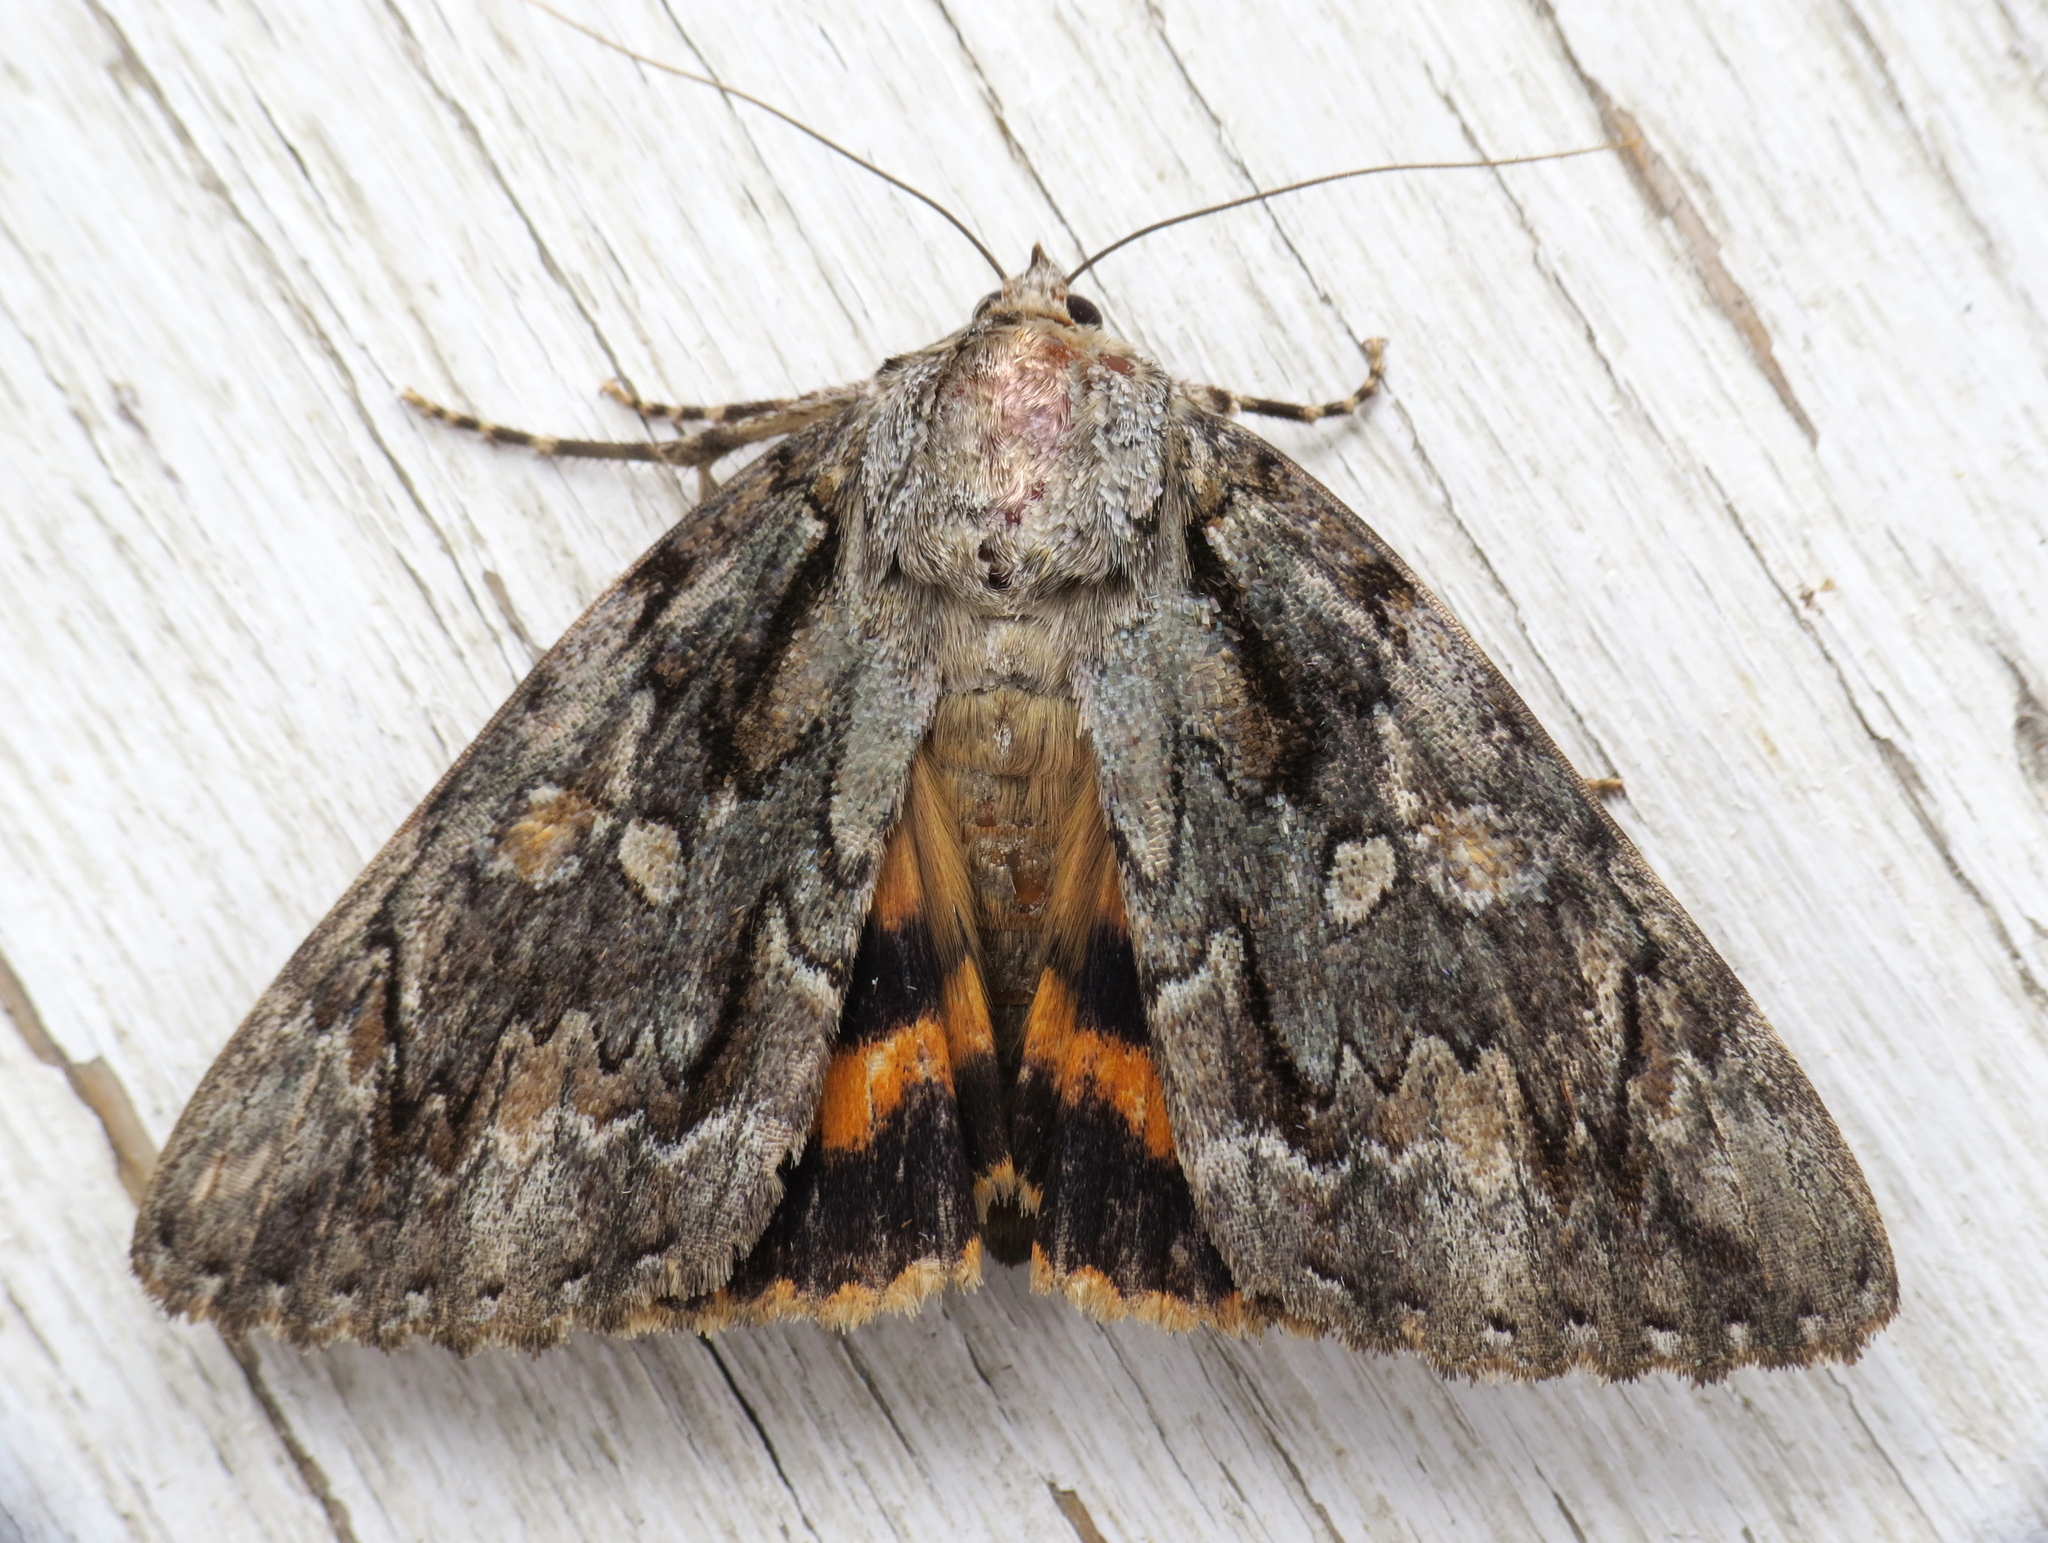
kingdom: Animalia
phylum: Arthropoda
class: Insecta
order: Lepidoptera
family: Erebidae
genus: Catocala
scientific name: Catocala neogama
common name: Bride underwing
